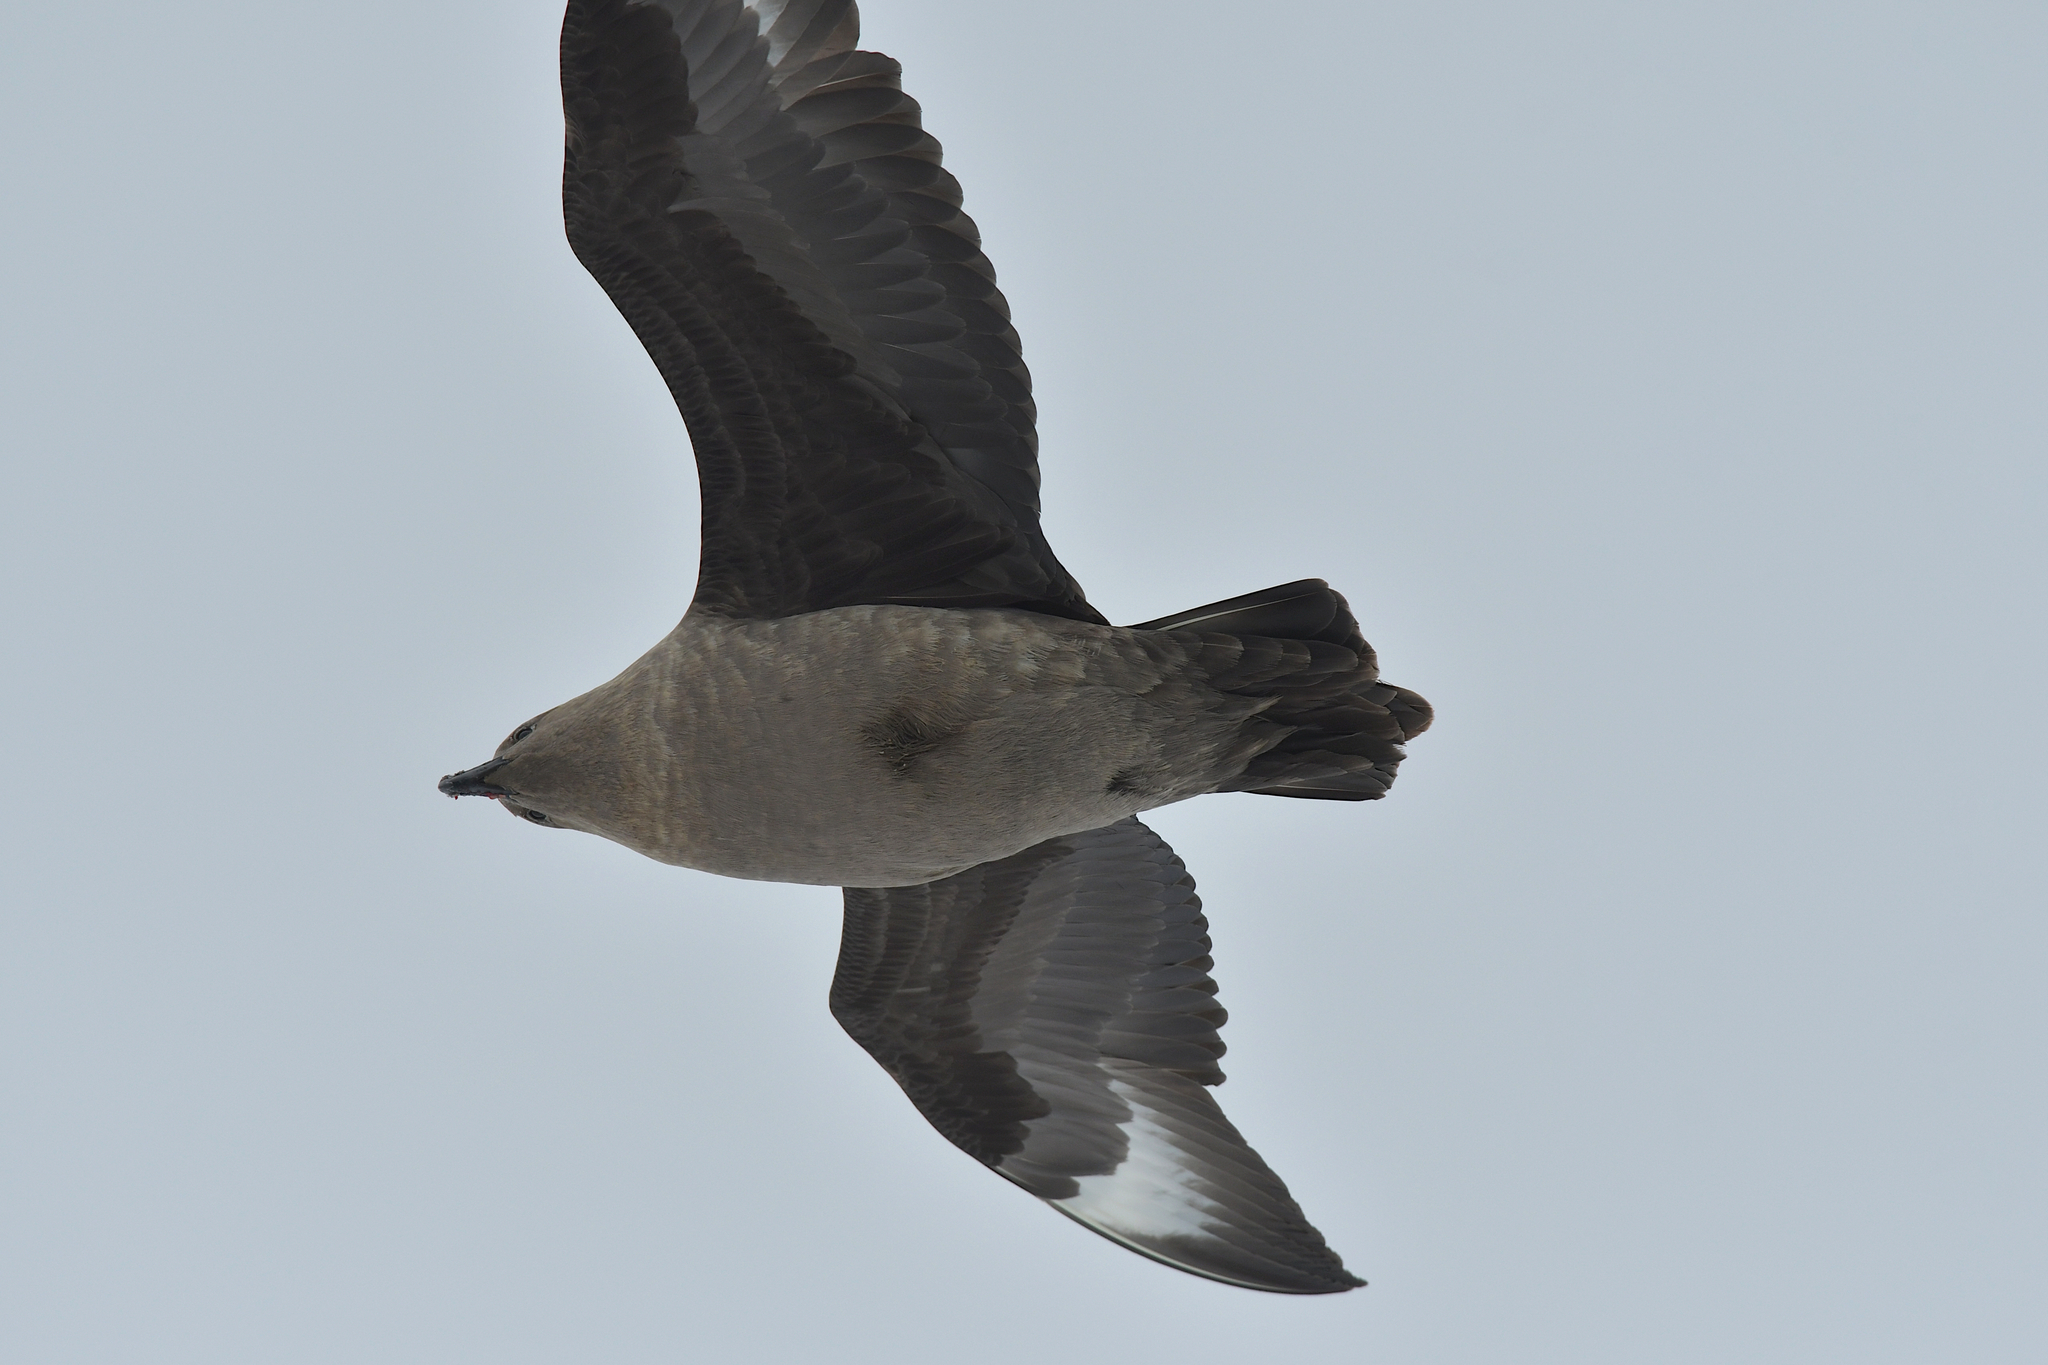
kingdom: Animalia
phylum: Chordata
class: Aves
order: Charadriiformes
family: Stercorariidae
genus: Stercorarius
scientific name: Stercorarius maccormicki
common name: South polar skua
